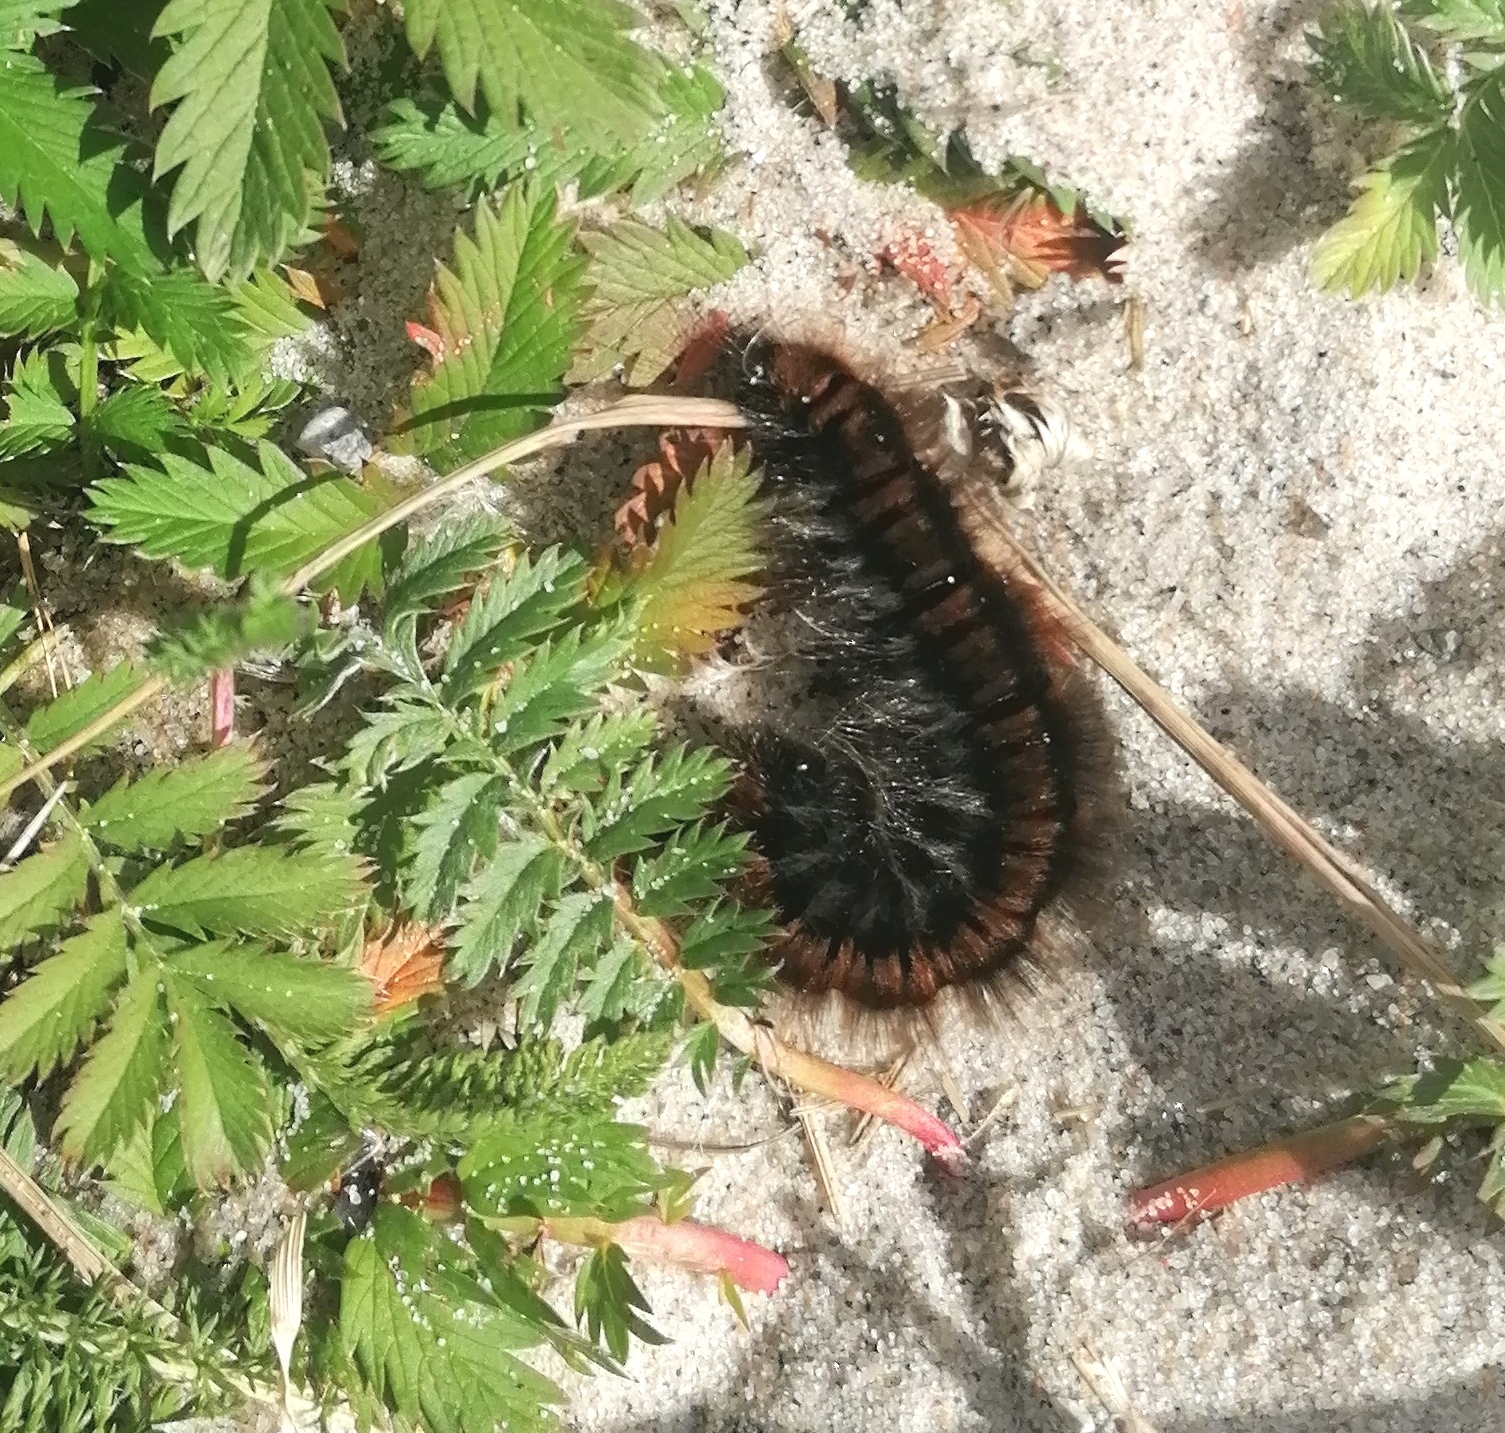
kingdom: Animalia
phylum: Arthropoda
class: Insecta
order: Lepidoptera
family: Lasiocampidae
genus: Macrothylacia
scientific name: Macrothylacia rubi
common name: Fox moth
